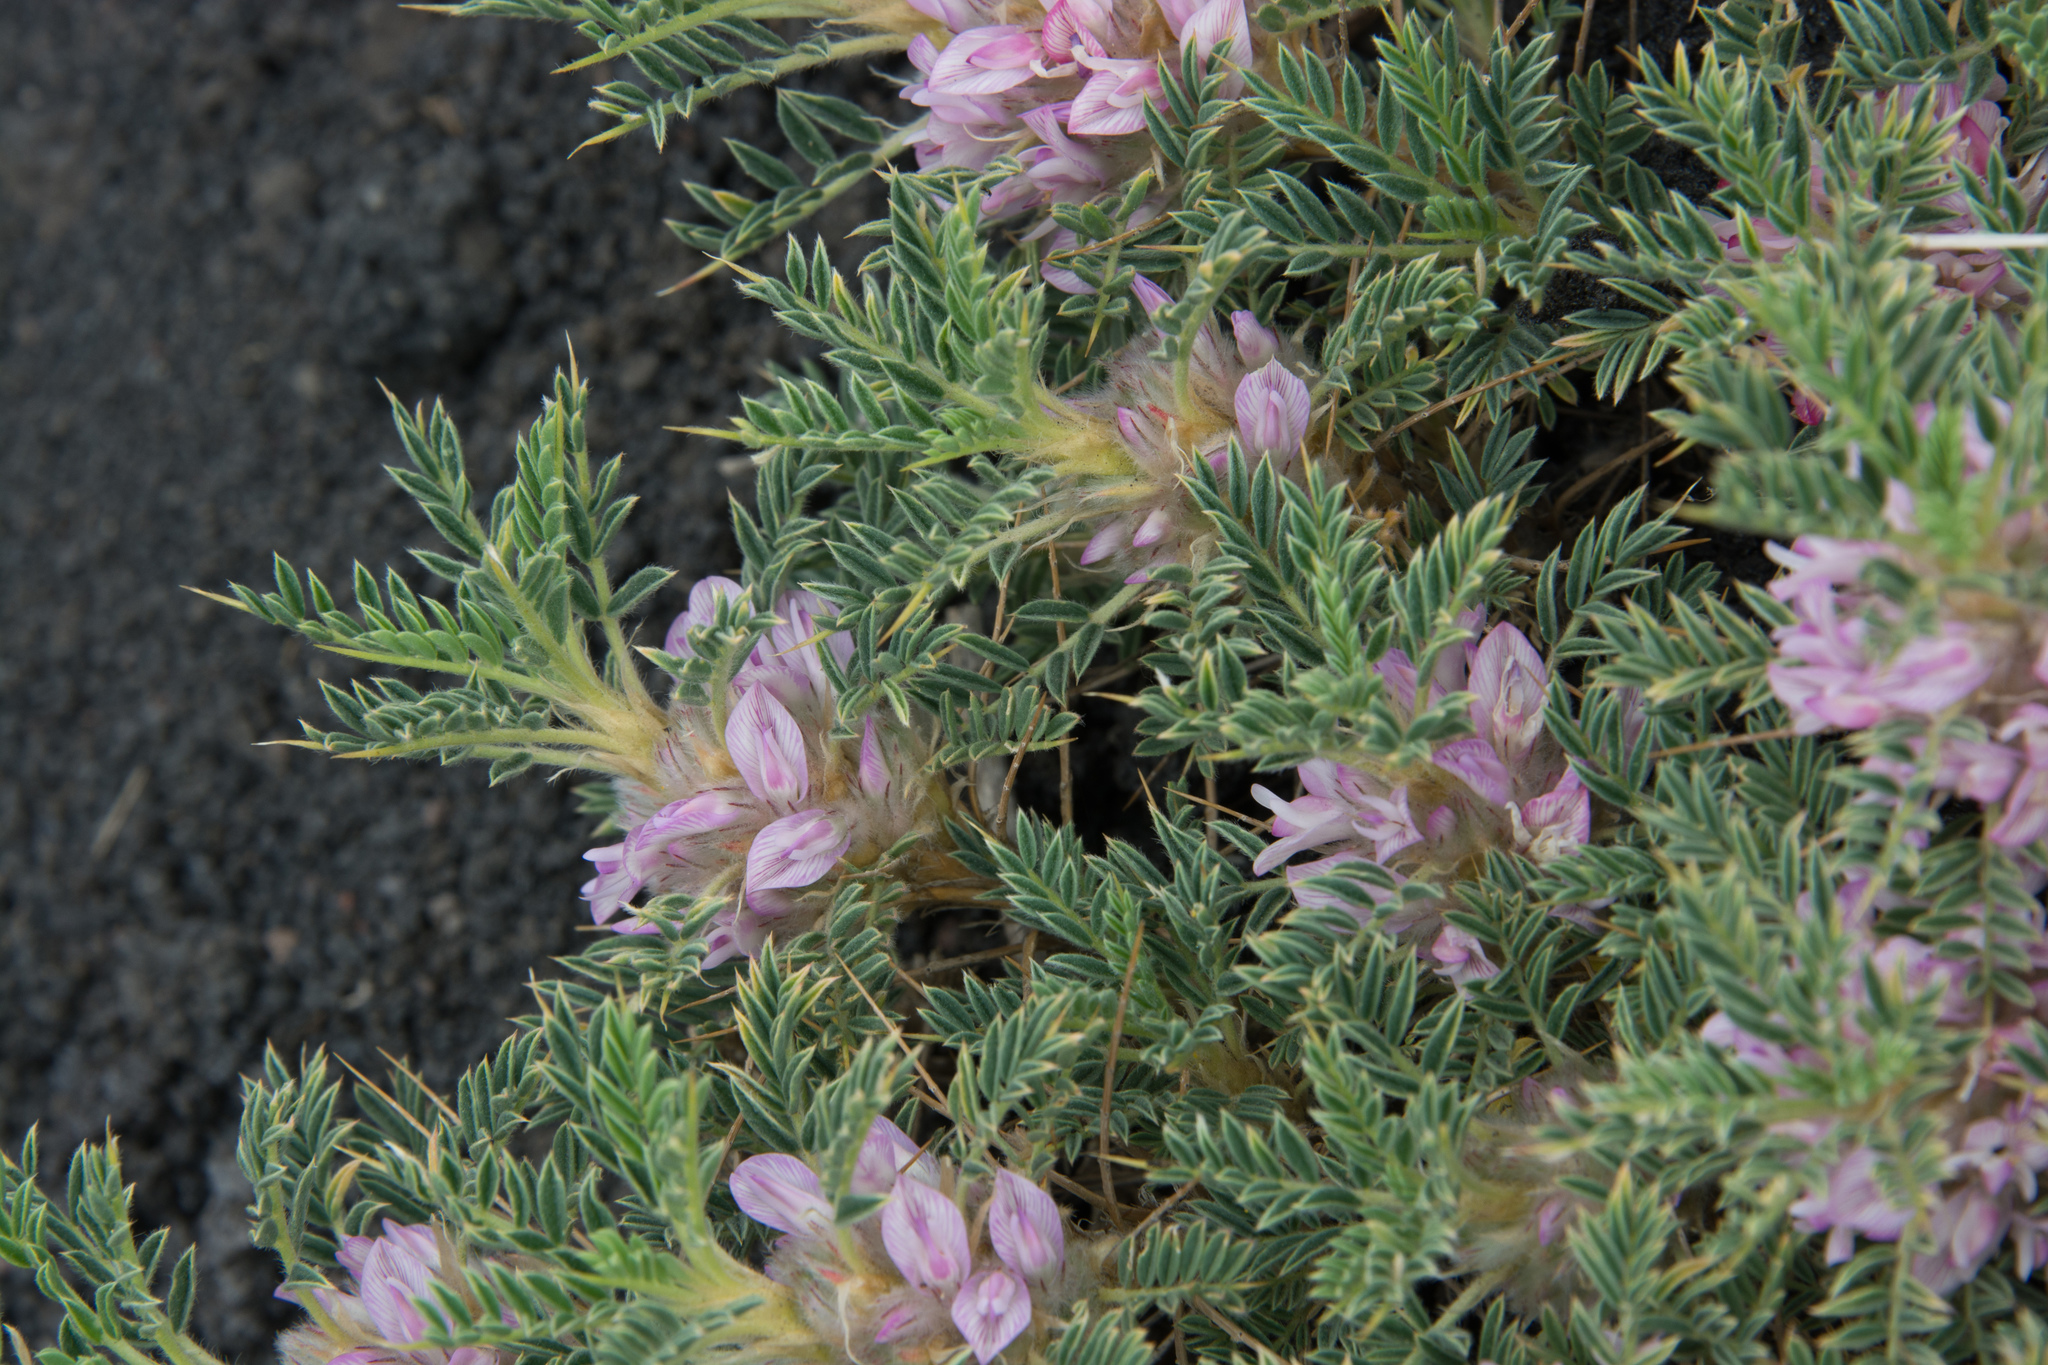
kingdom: Plantae
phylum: Tracheophyta
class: Magnoliopsida
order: Fabales
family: Fabaceae
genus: Astragalus
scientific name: Astragalus siculus
